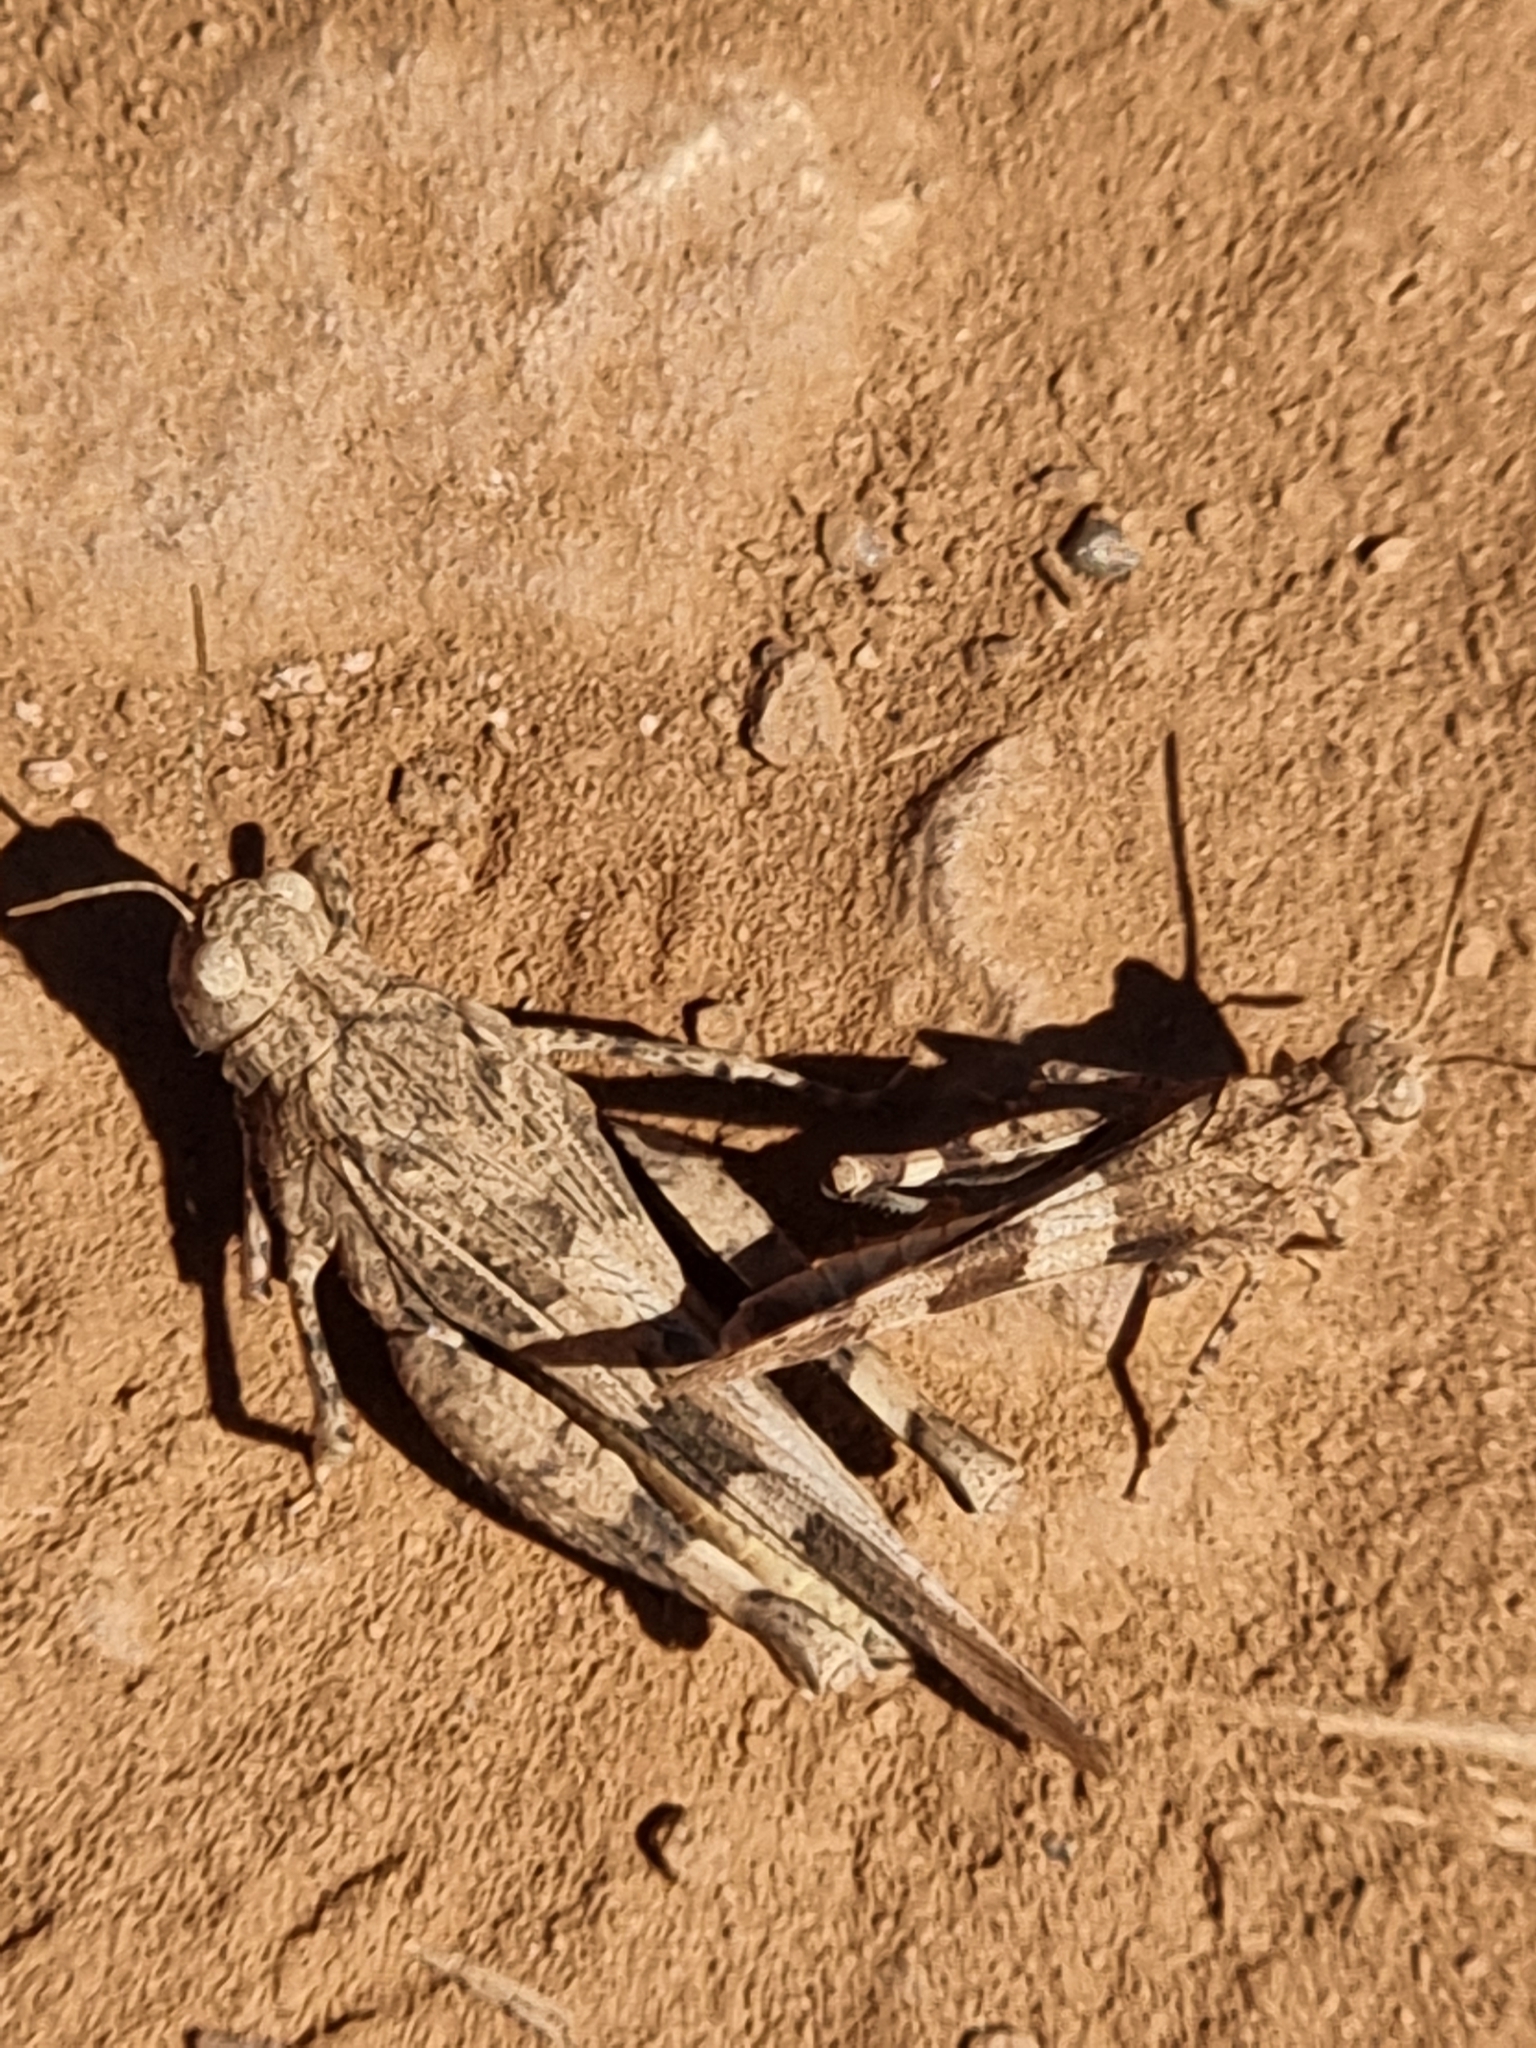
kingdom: Animalia
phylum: Arthropoda
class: Insecta
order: Orthoptera
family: Acrididae
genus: Oedipoda
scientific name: Oedipoda caerulescens
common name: Blue-winged grasshopper
